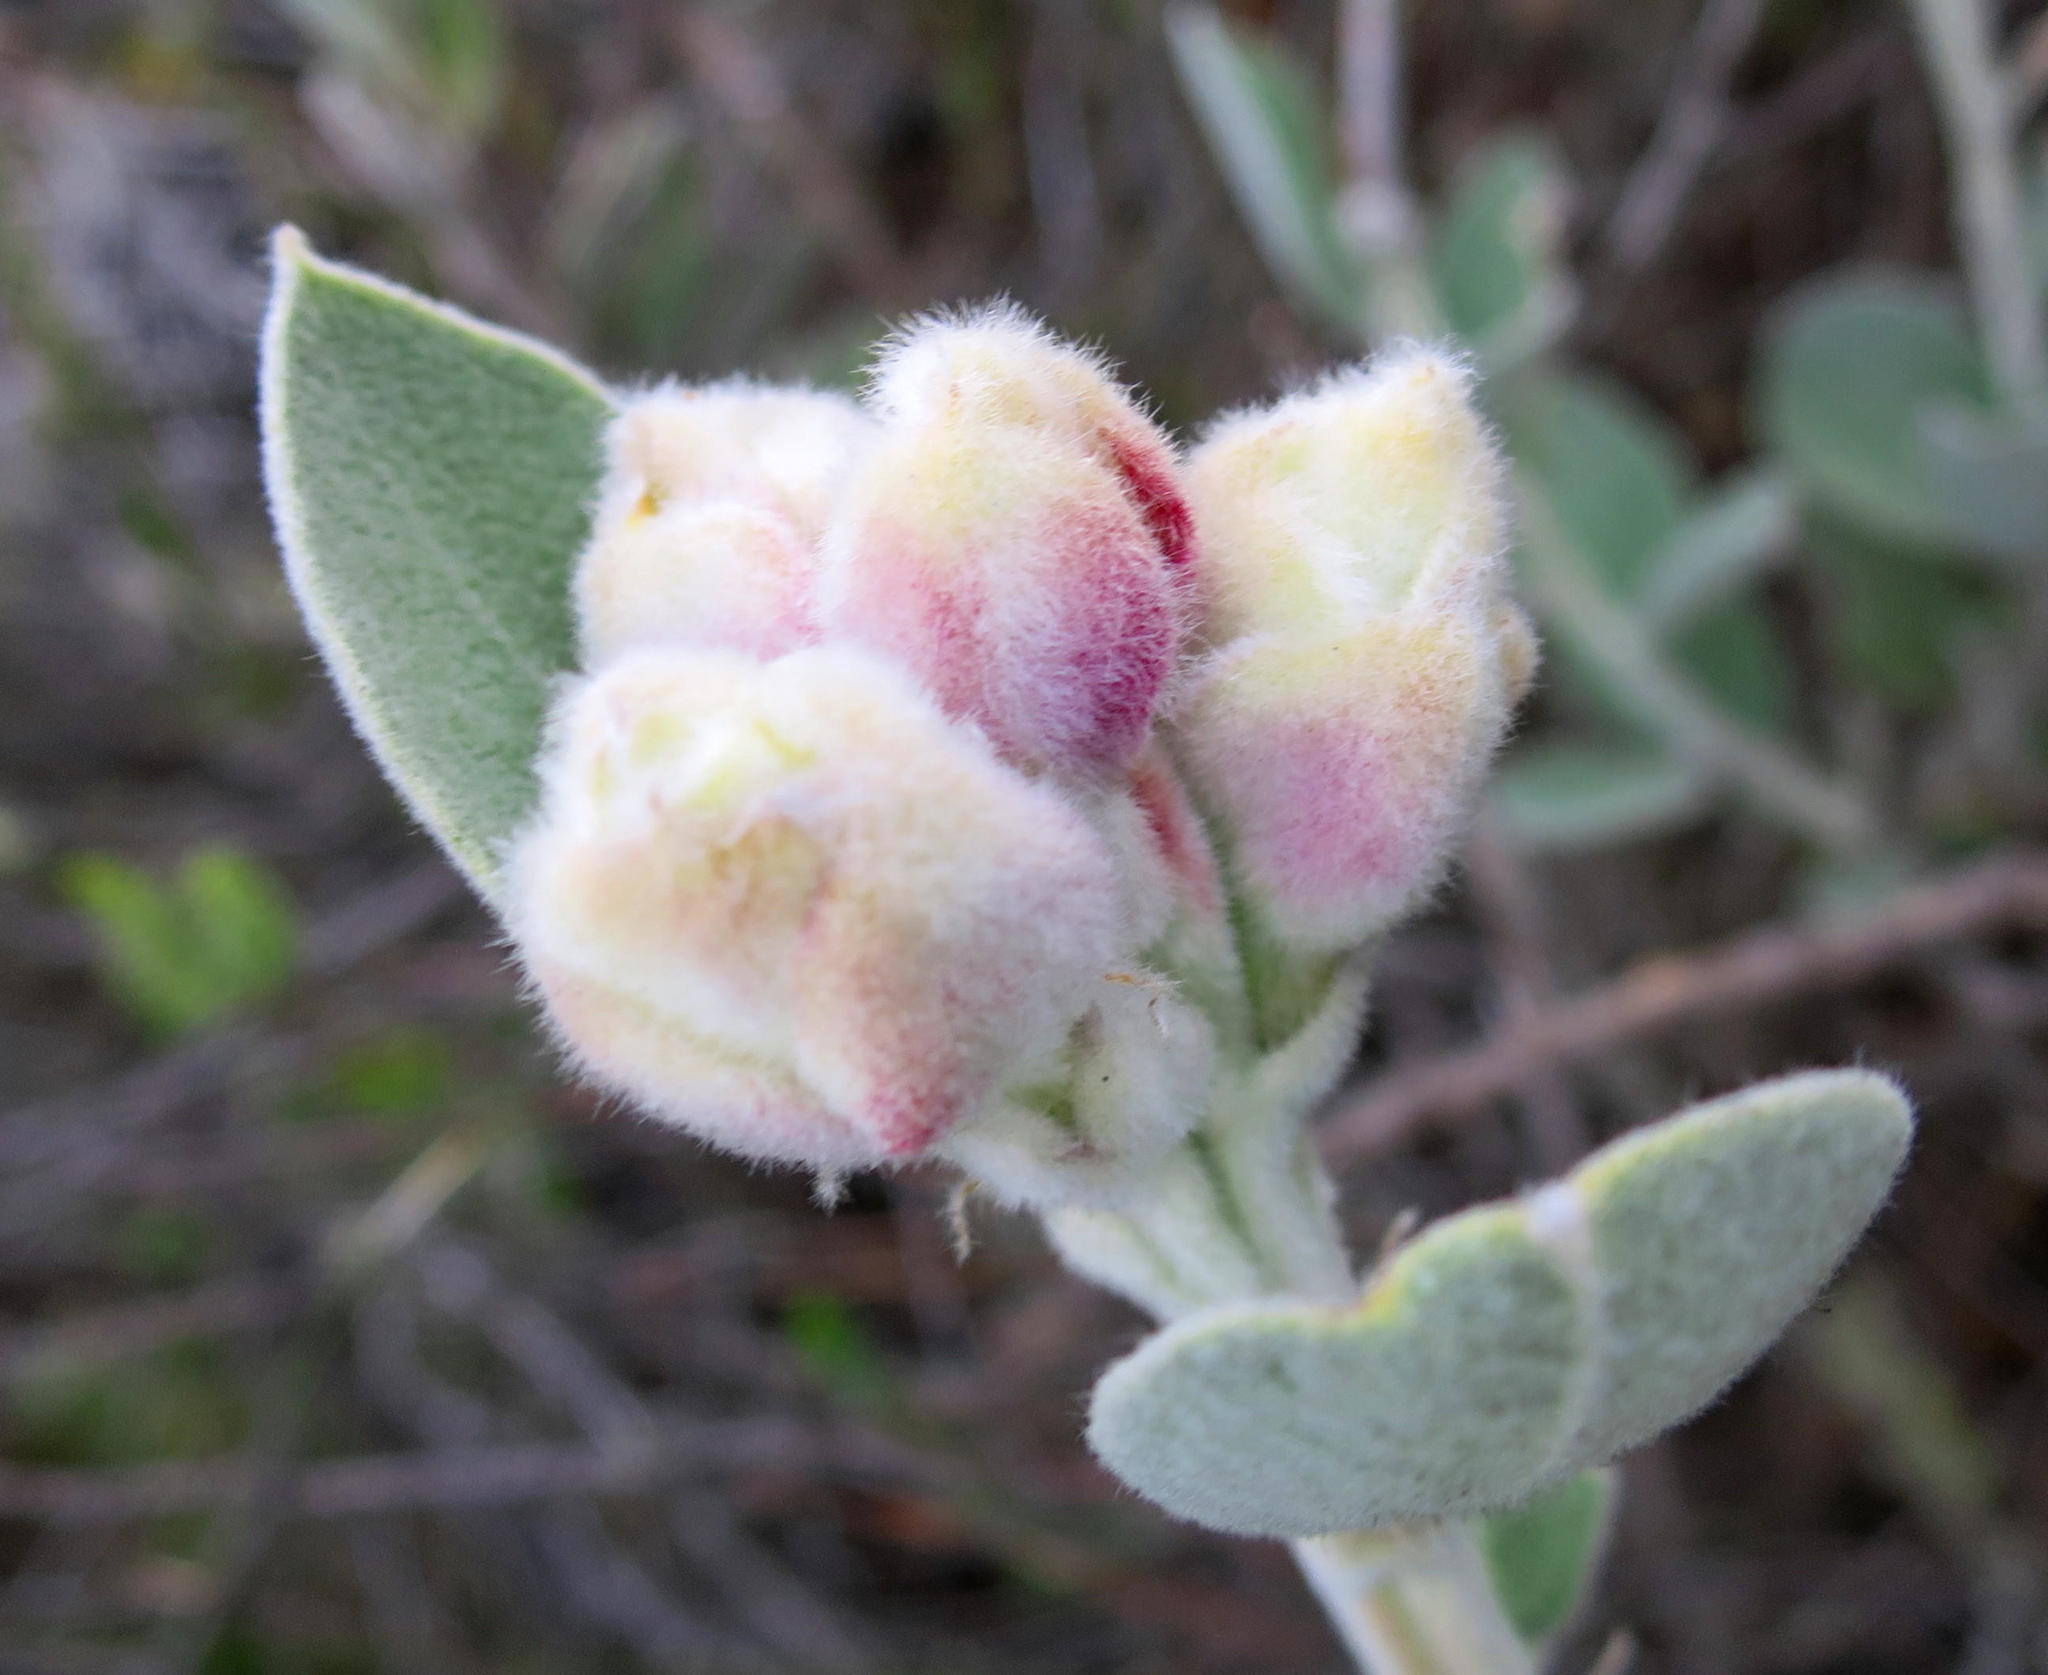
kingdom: Plantae
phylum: Tracheophyta
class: Magnoliopsida
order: Fabales
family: Fabaceae
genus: Stirtonanthus
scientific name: Stirtonanthus insignis
